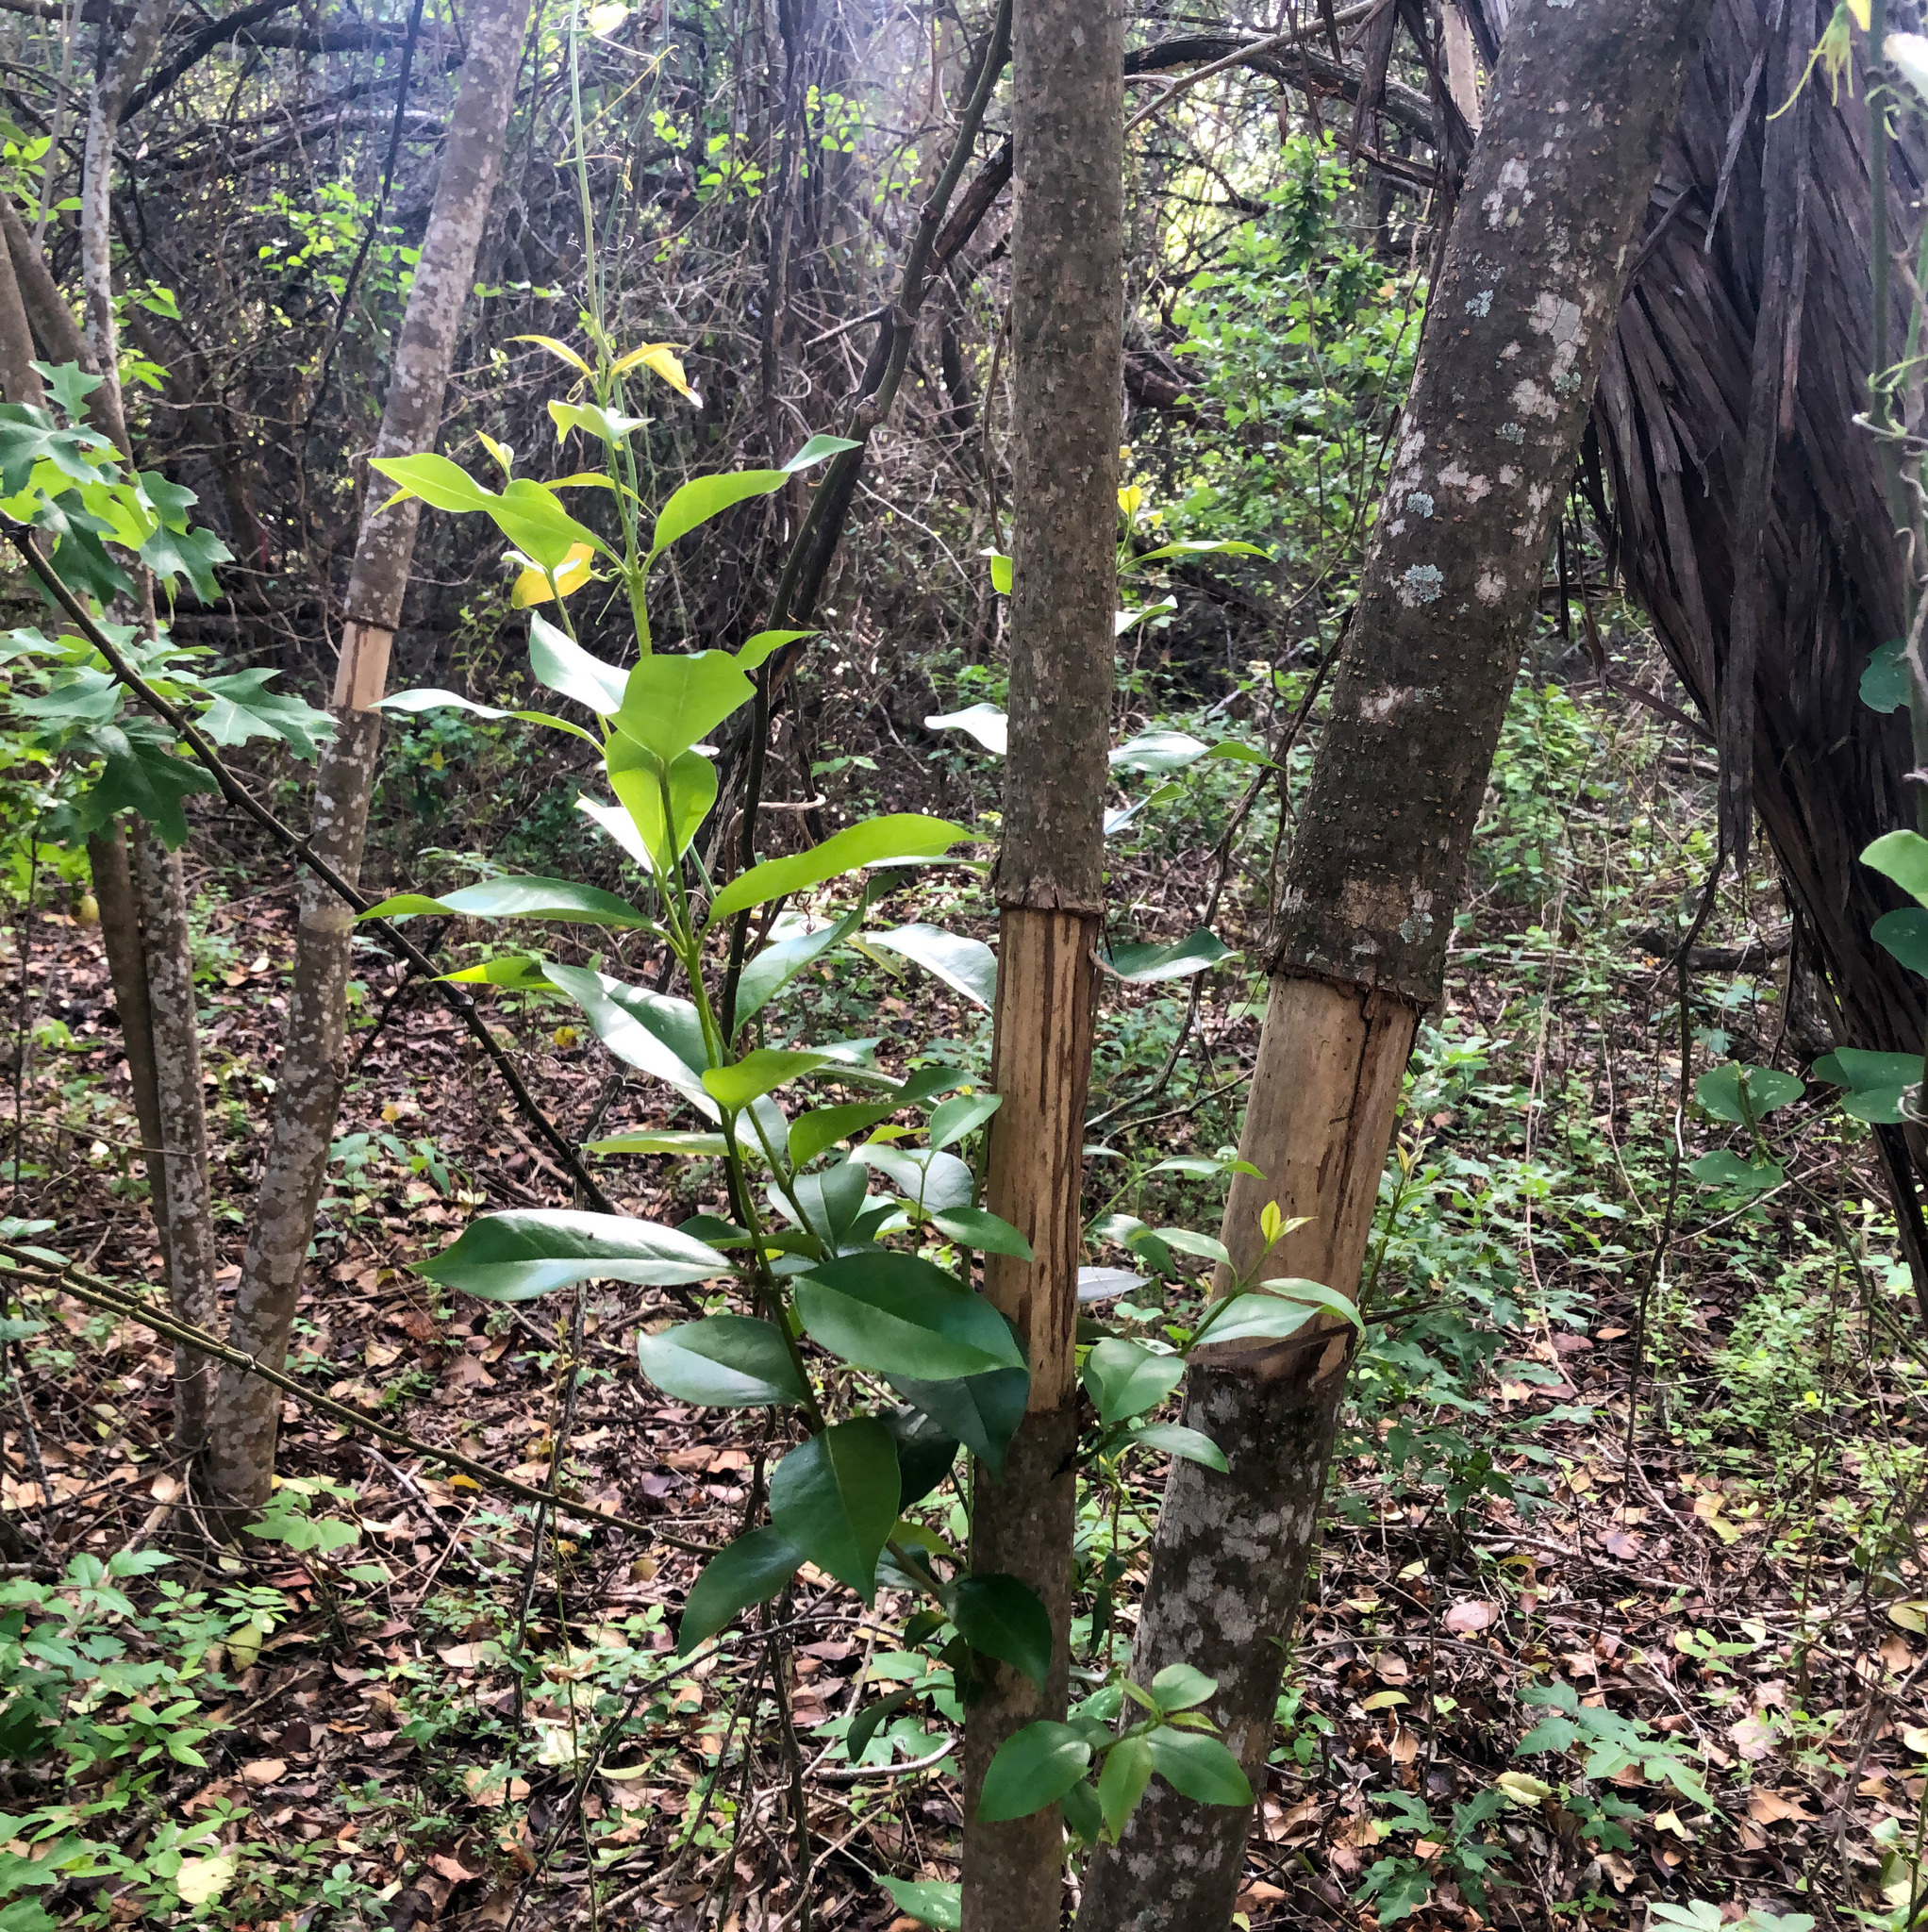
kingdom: Plantae
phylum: Tracheophyta
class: Magnoliopsida
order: Lamiales
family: Oleaceae
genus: Ligustrum
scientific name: Ligustrum lucidum
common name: Glossy privet
